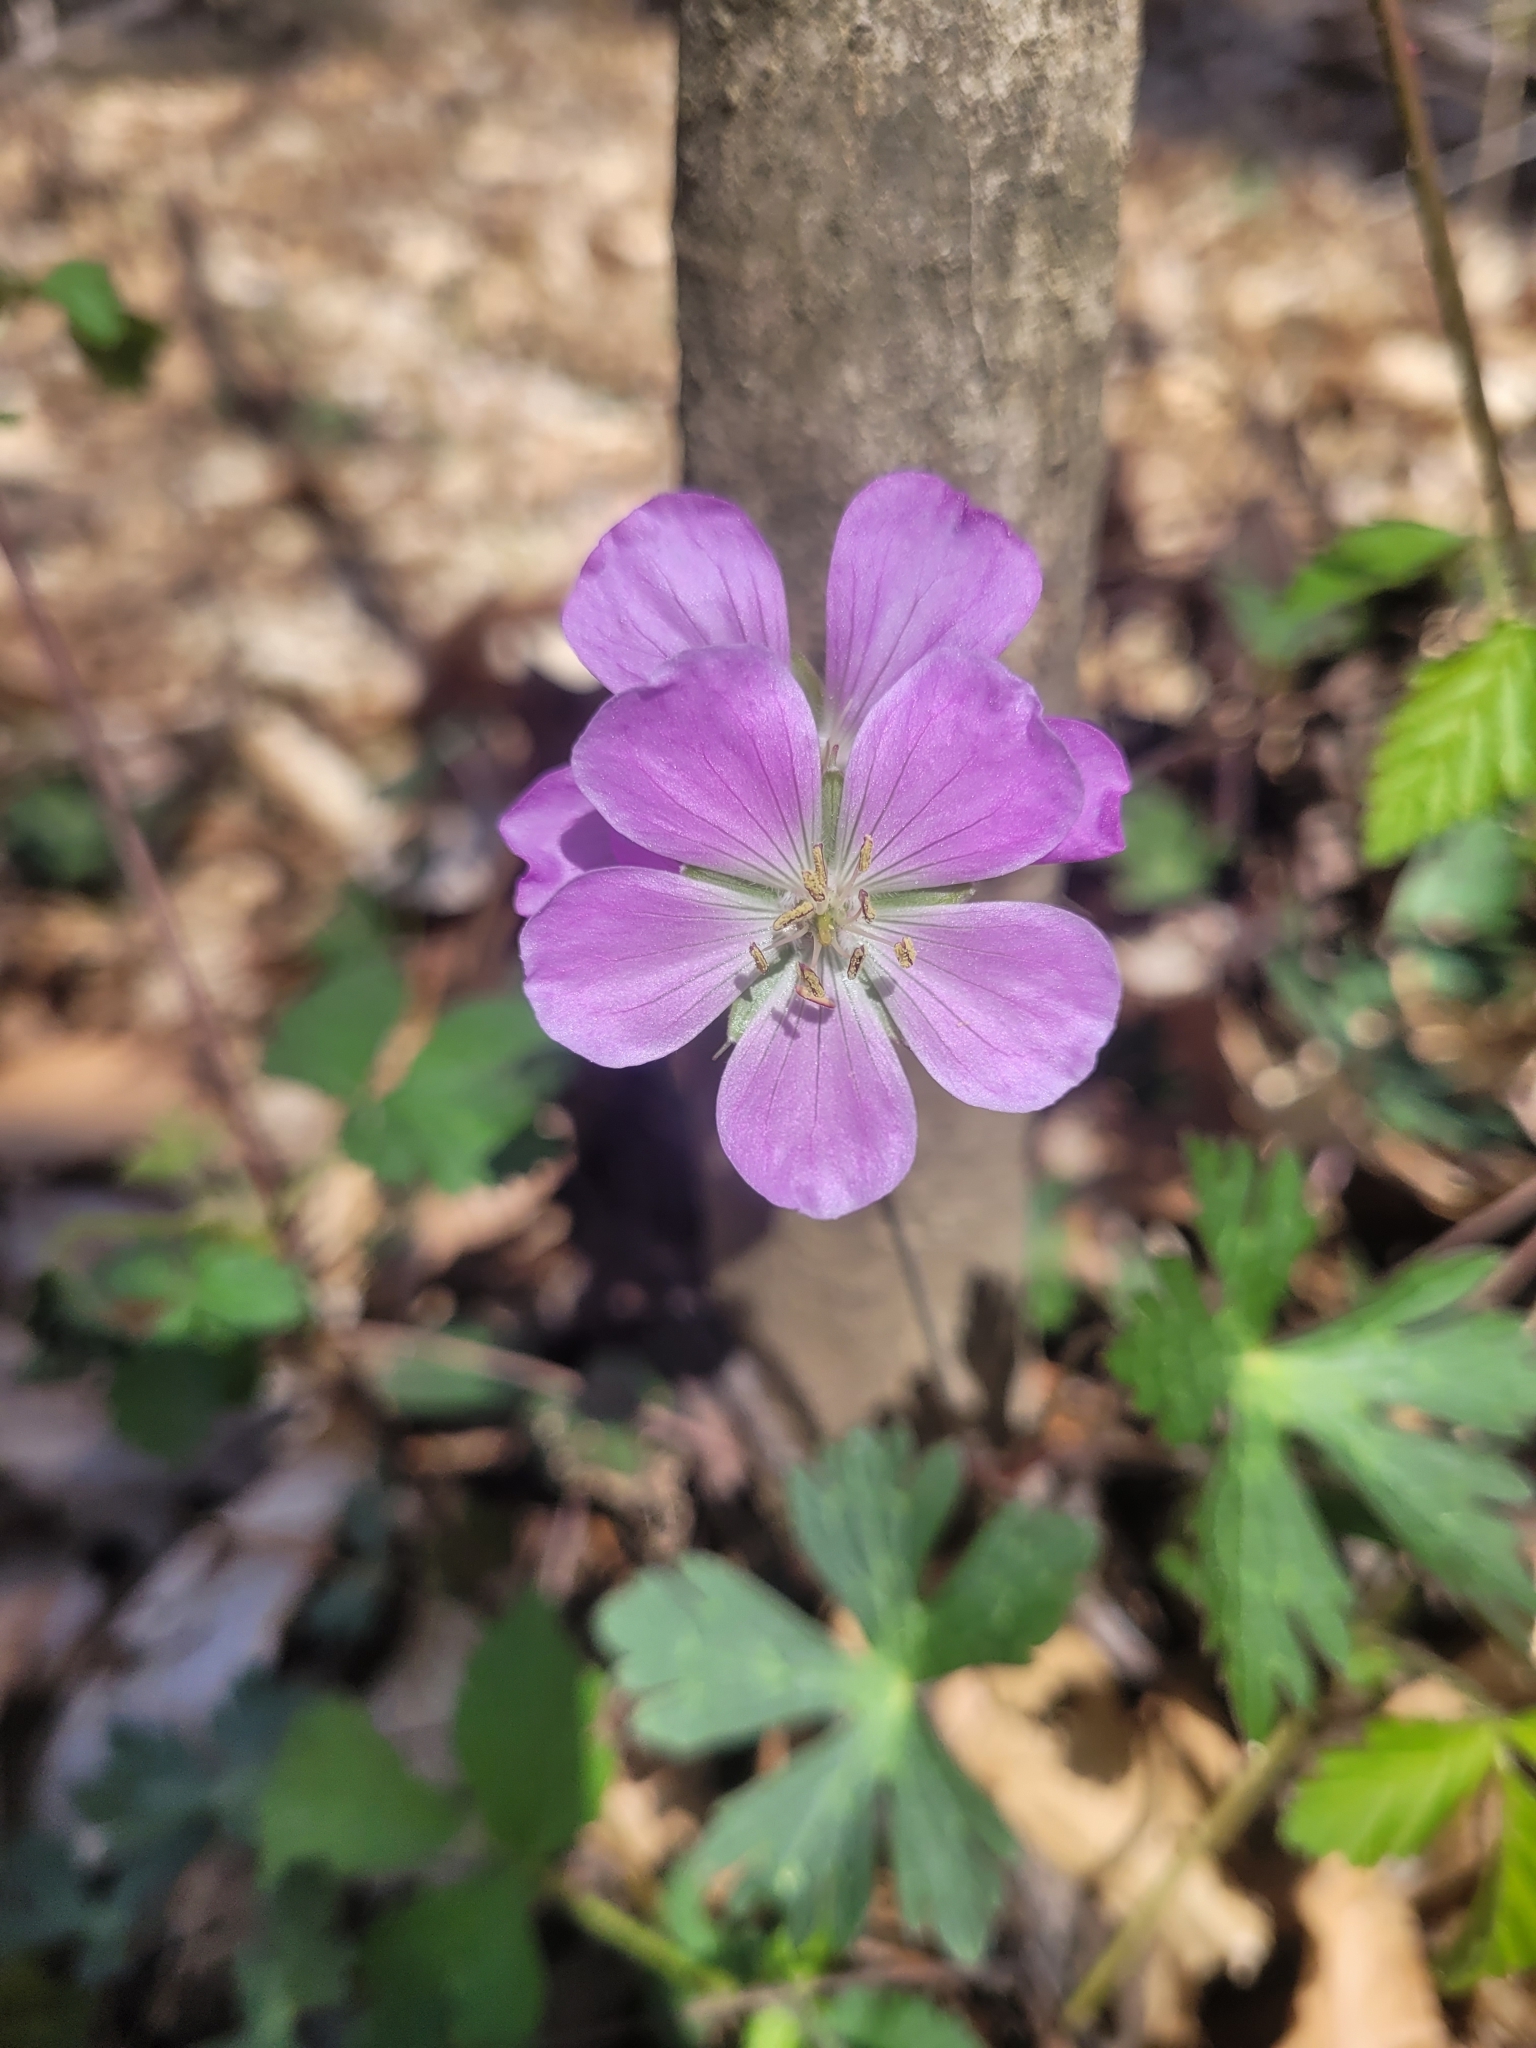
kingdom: Plantae
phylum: Tracheophyta
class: Magnoliopsida
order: Geraniales
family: Geraniaceae
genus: Geranium
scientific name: Geranium maculatum
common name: Spotted geranium
